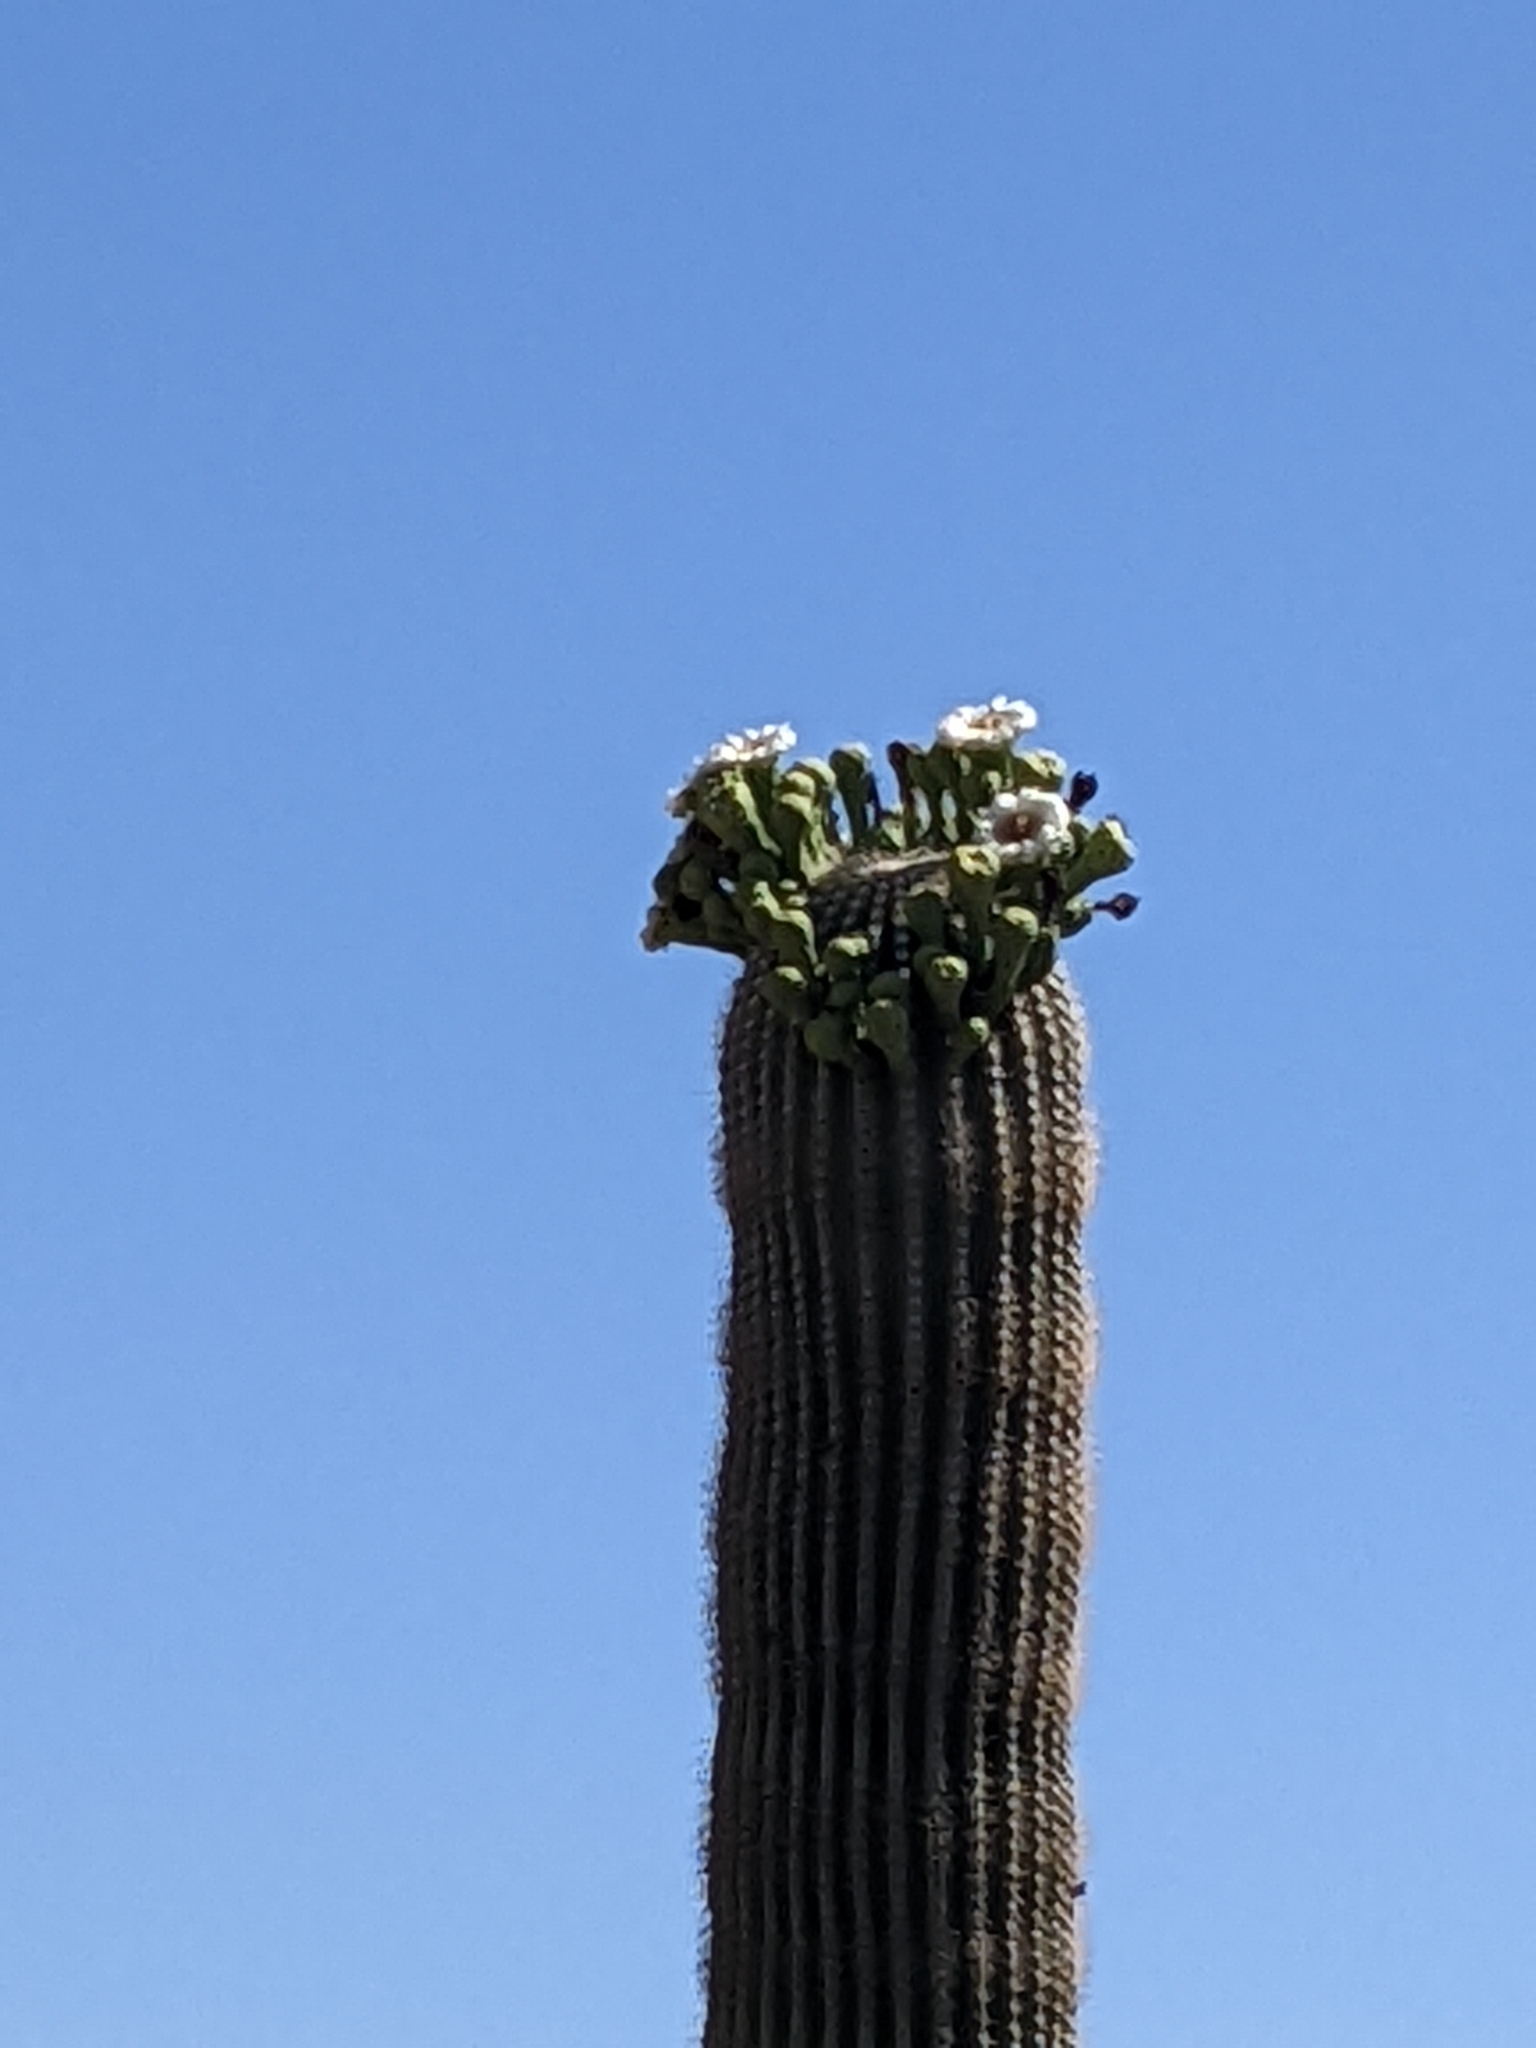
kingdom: Plantae
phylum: Tracheophyta
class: Magnoliopsida
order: Caryophyllales
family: Cactaceae
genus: Carnegiea
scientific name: Carnegiea gigantea
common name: Saguaro
